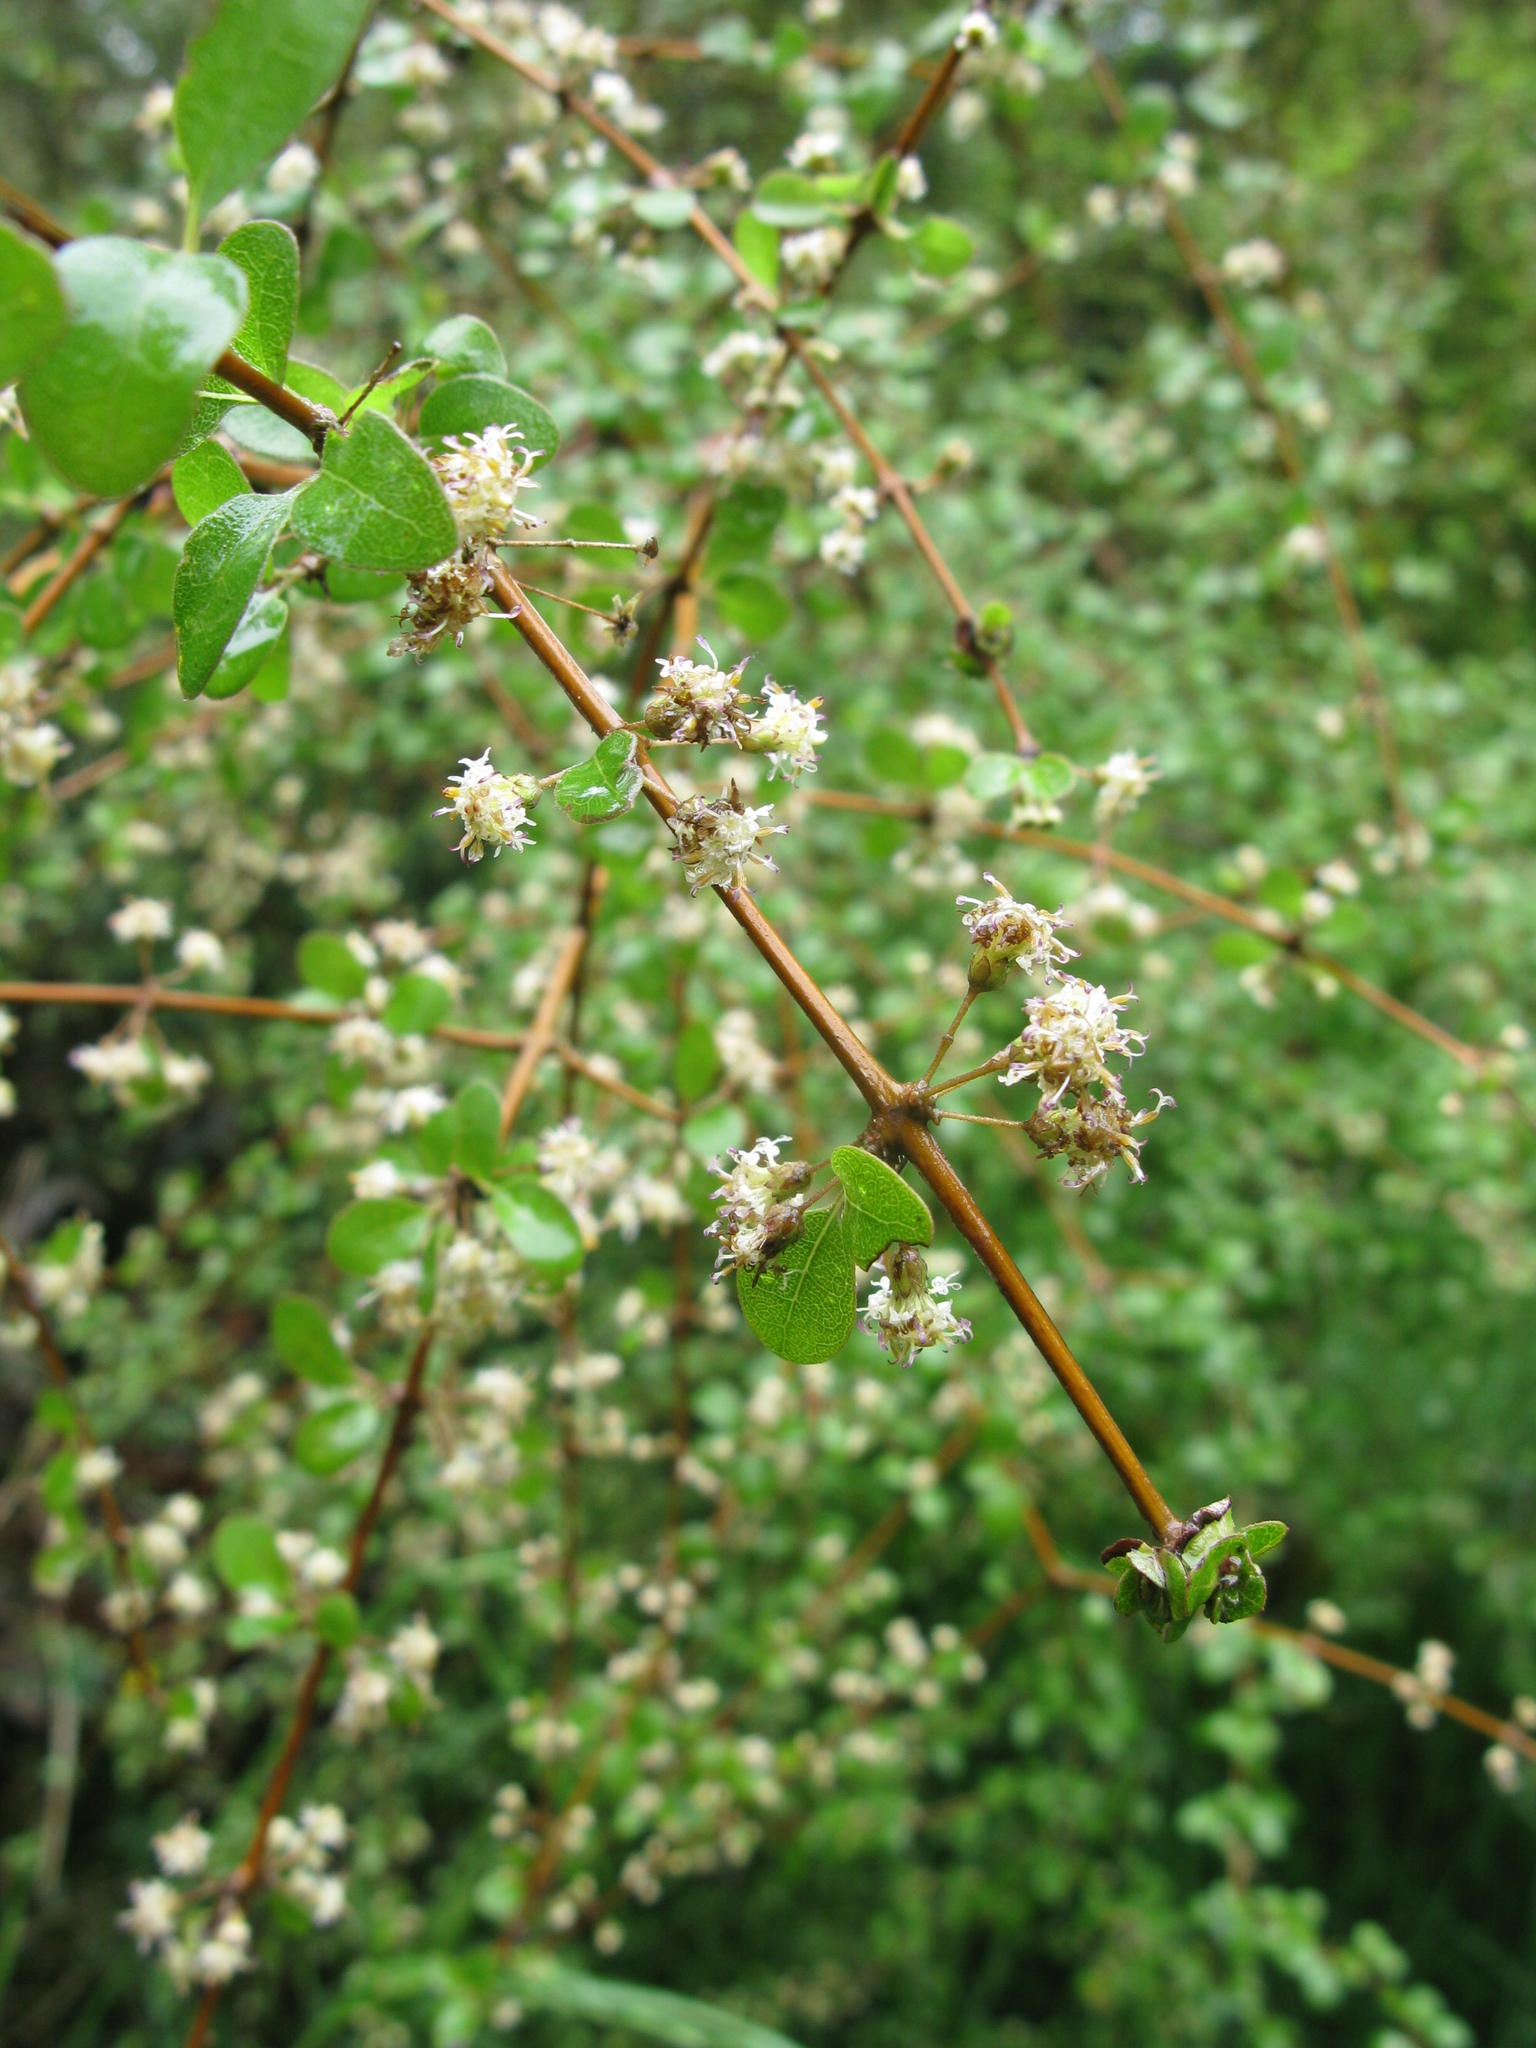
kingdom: Plantae
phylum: Tracheophyta
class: Magnoliopsida
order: Asterales
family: Asteraceae
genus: Olearia
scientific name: Olearia gardneri
